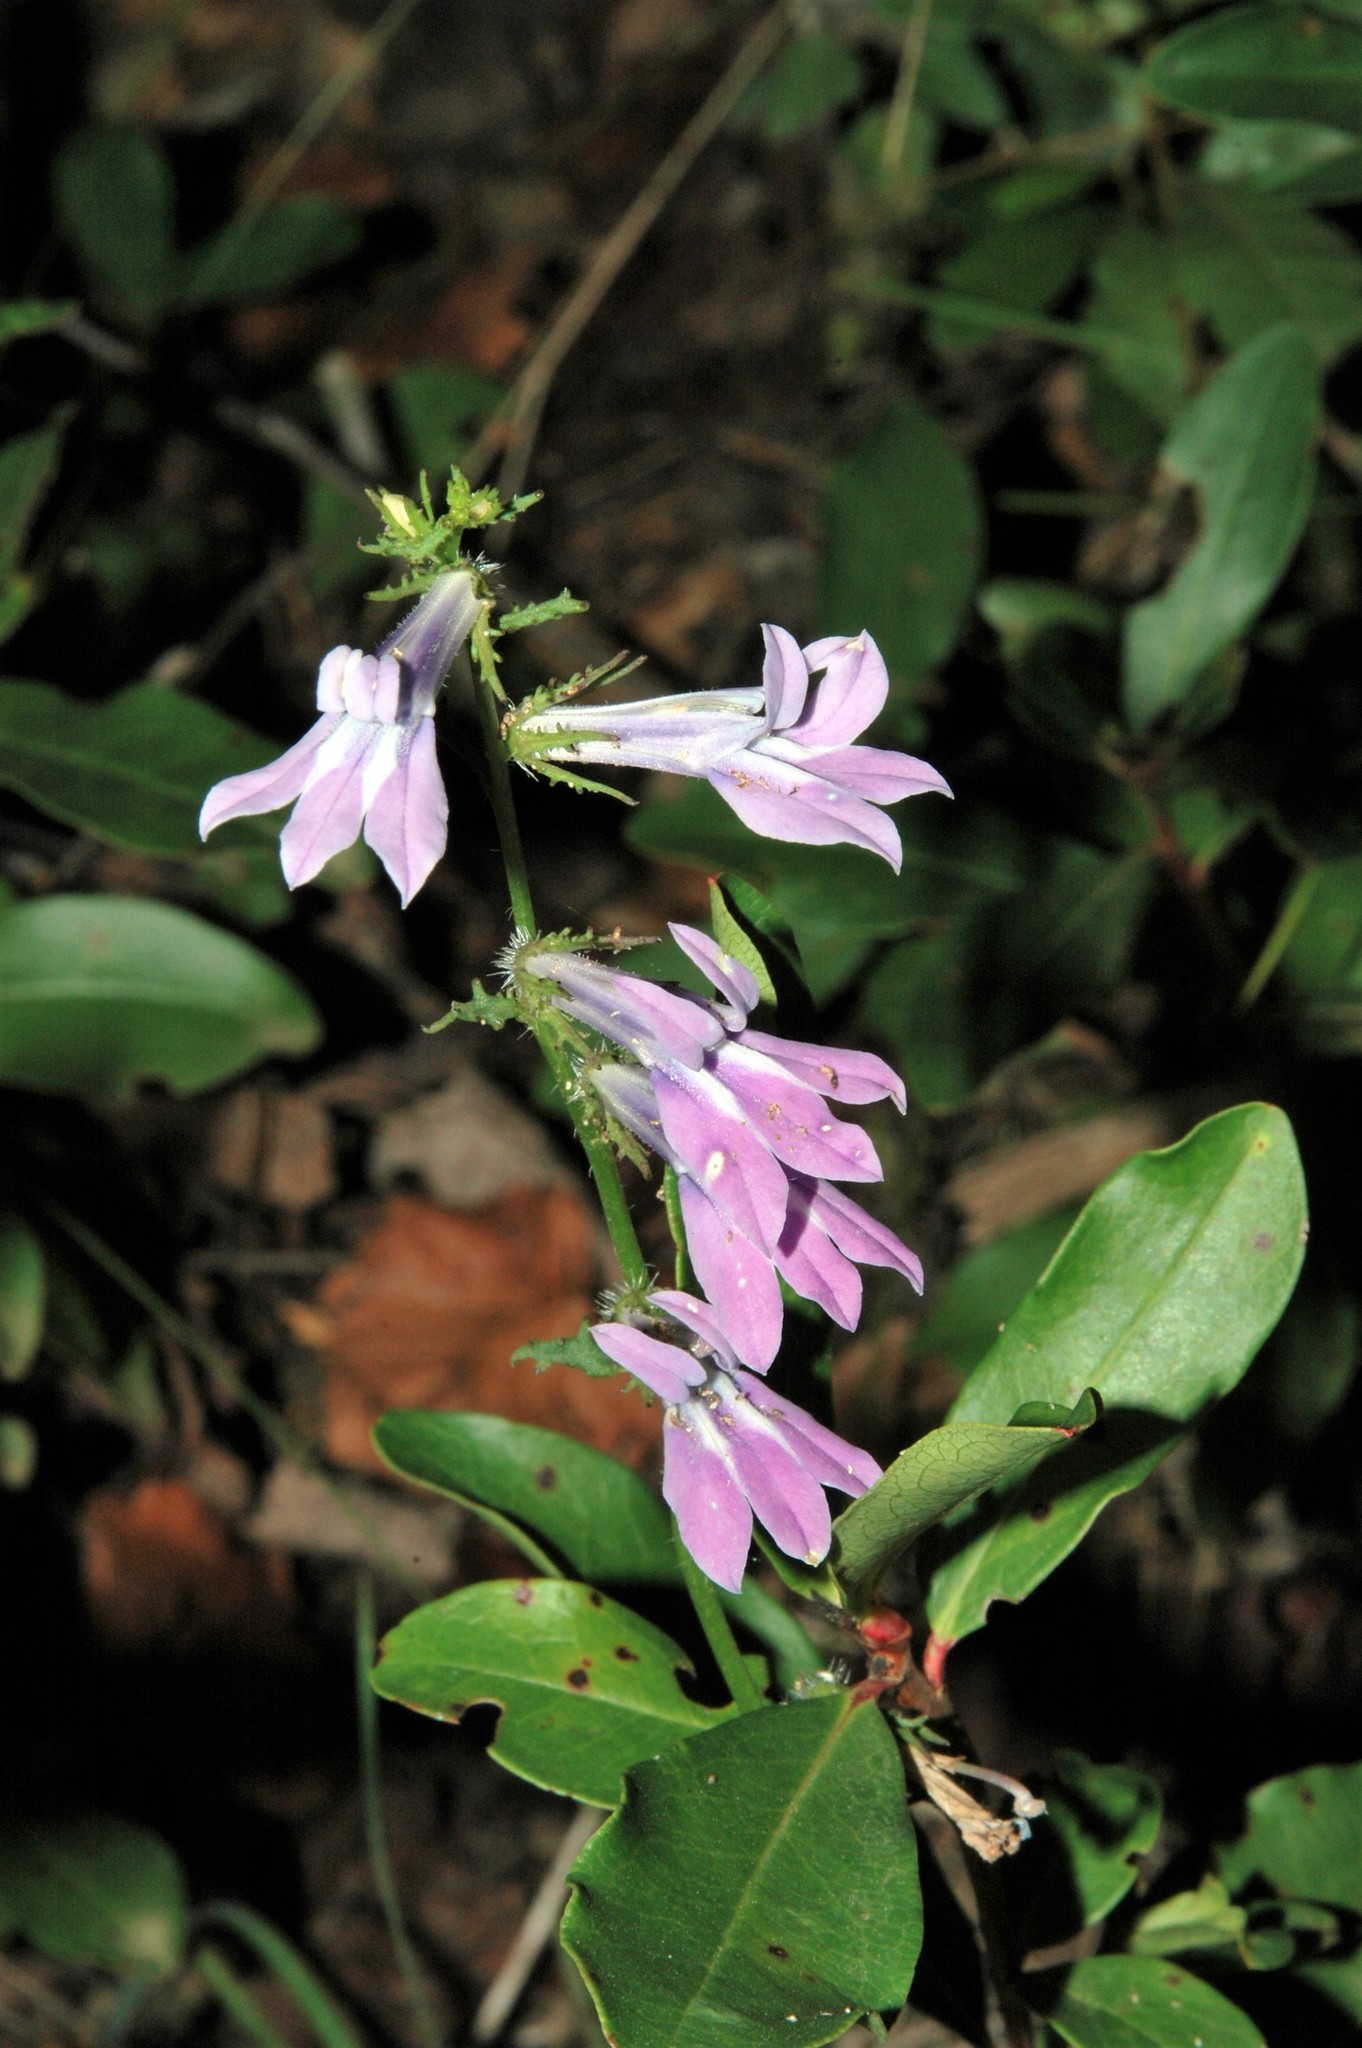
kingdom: Plantae
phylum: Tracheophyta
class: Magnoliopsida
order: Asterales
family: Campanulaceae
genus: Lobelia
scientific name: Lobelia glandulosa
